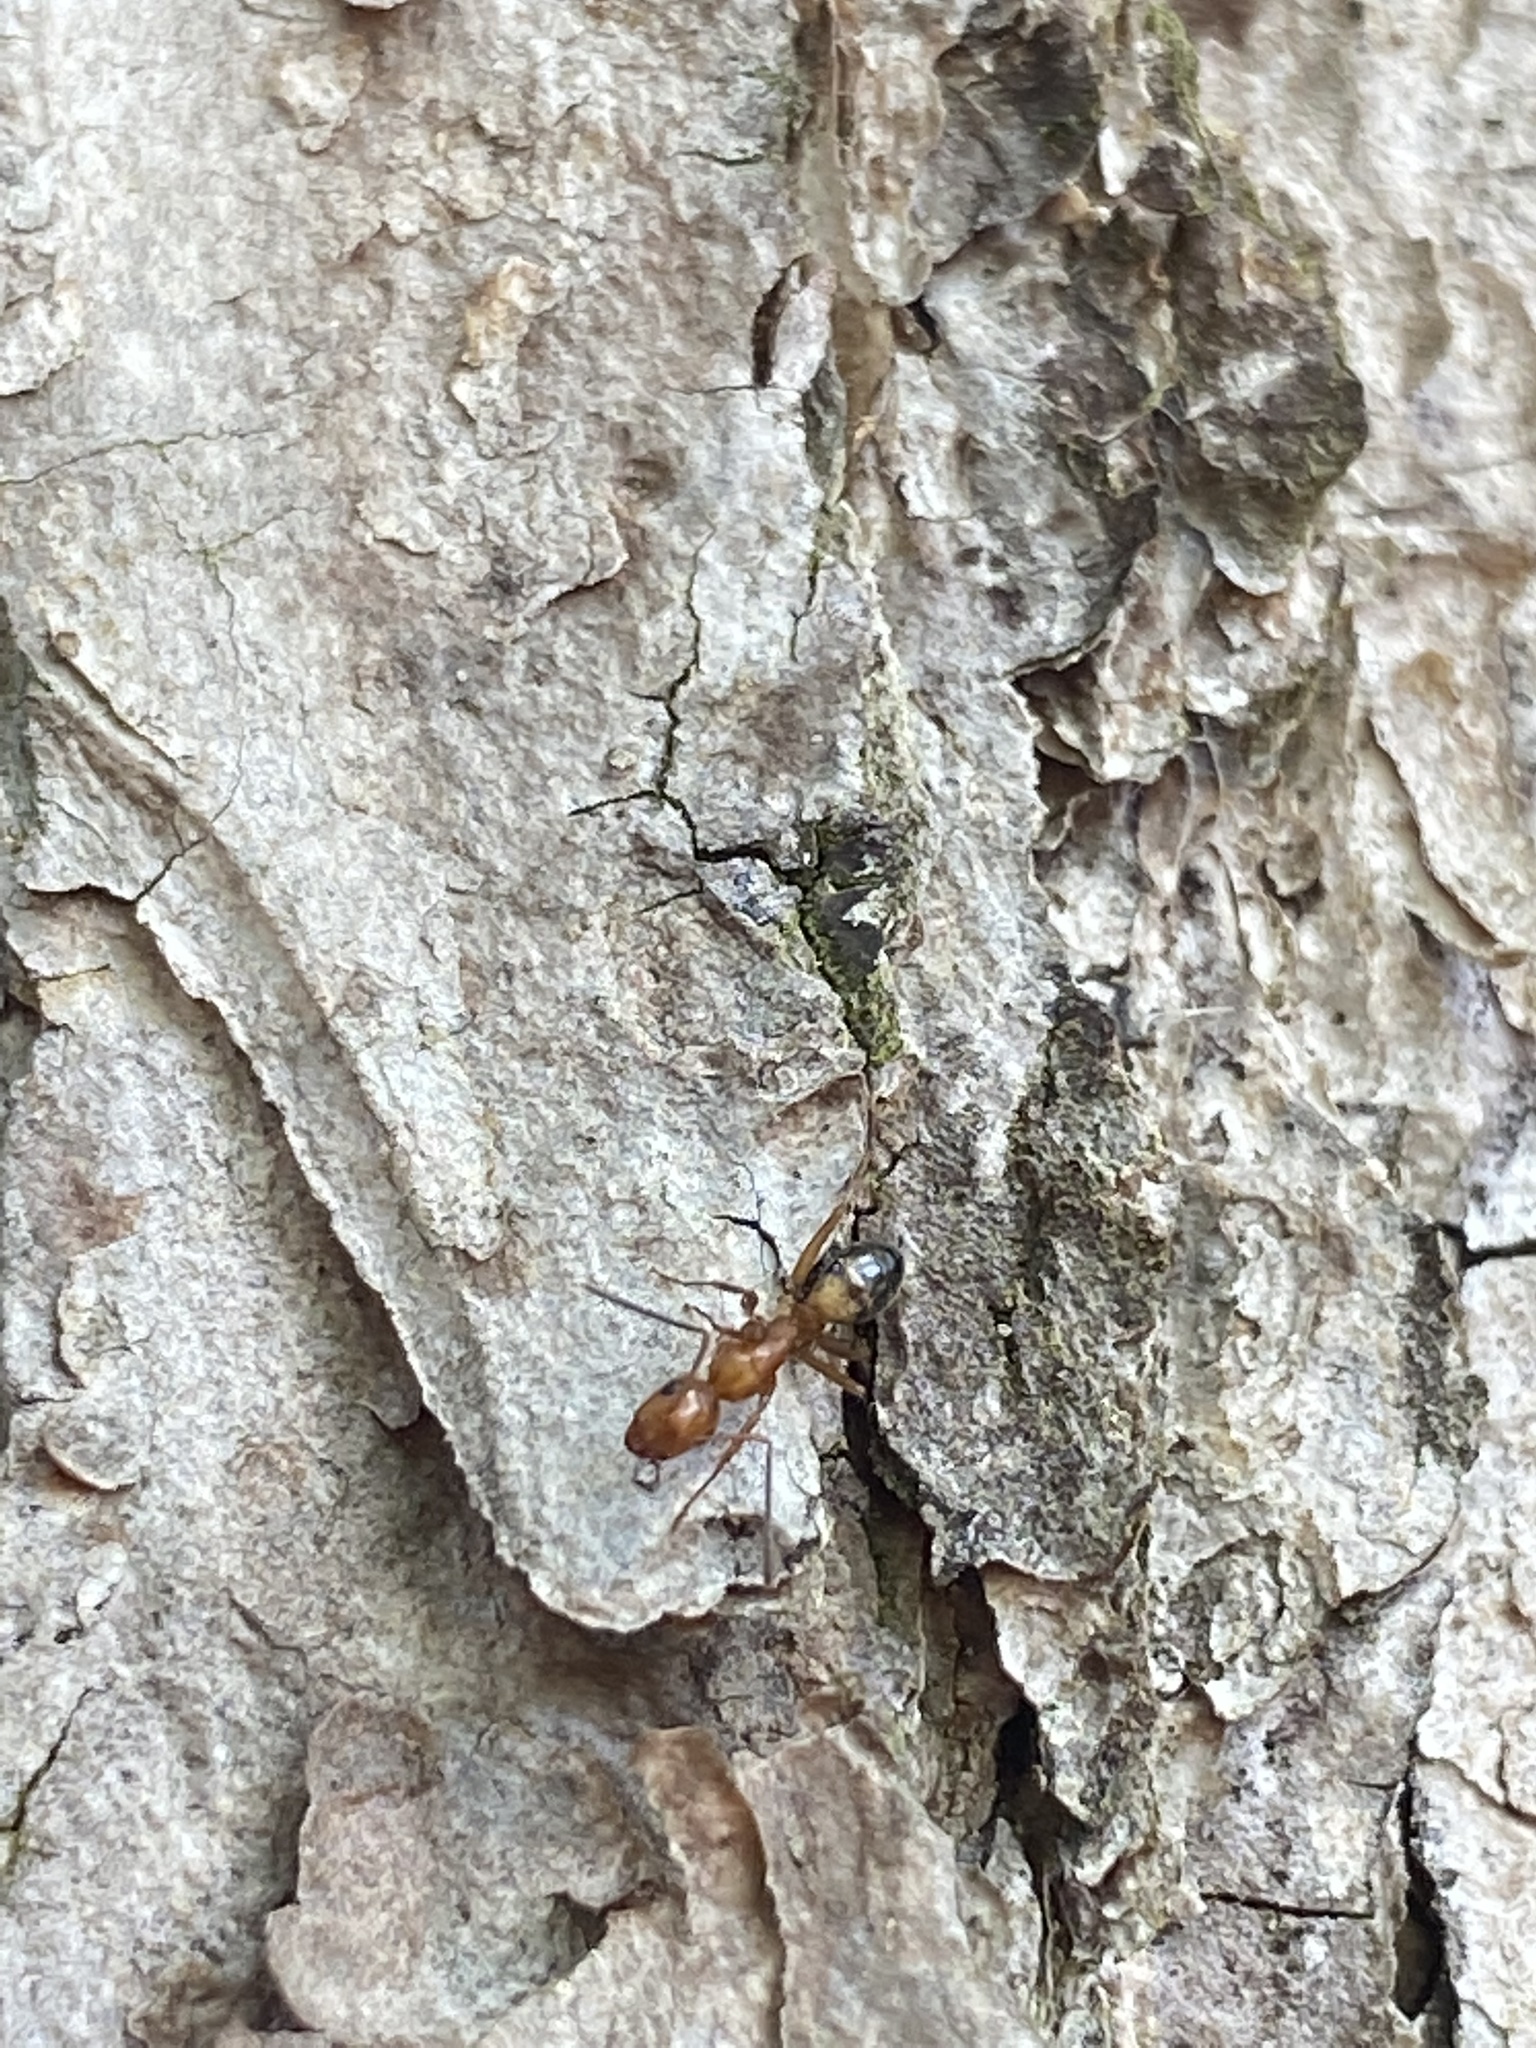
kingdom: Animalia
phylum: Arthropoda
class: Insecta
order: Hymenoptera
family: Formicidae
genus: Camponotus
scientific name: Camponotus snellingi
